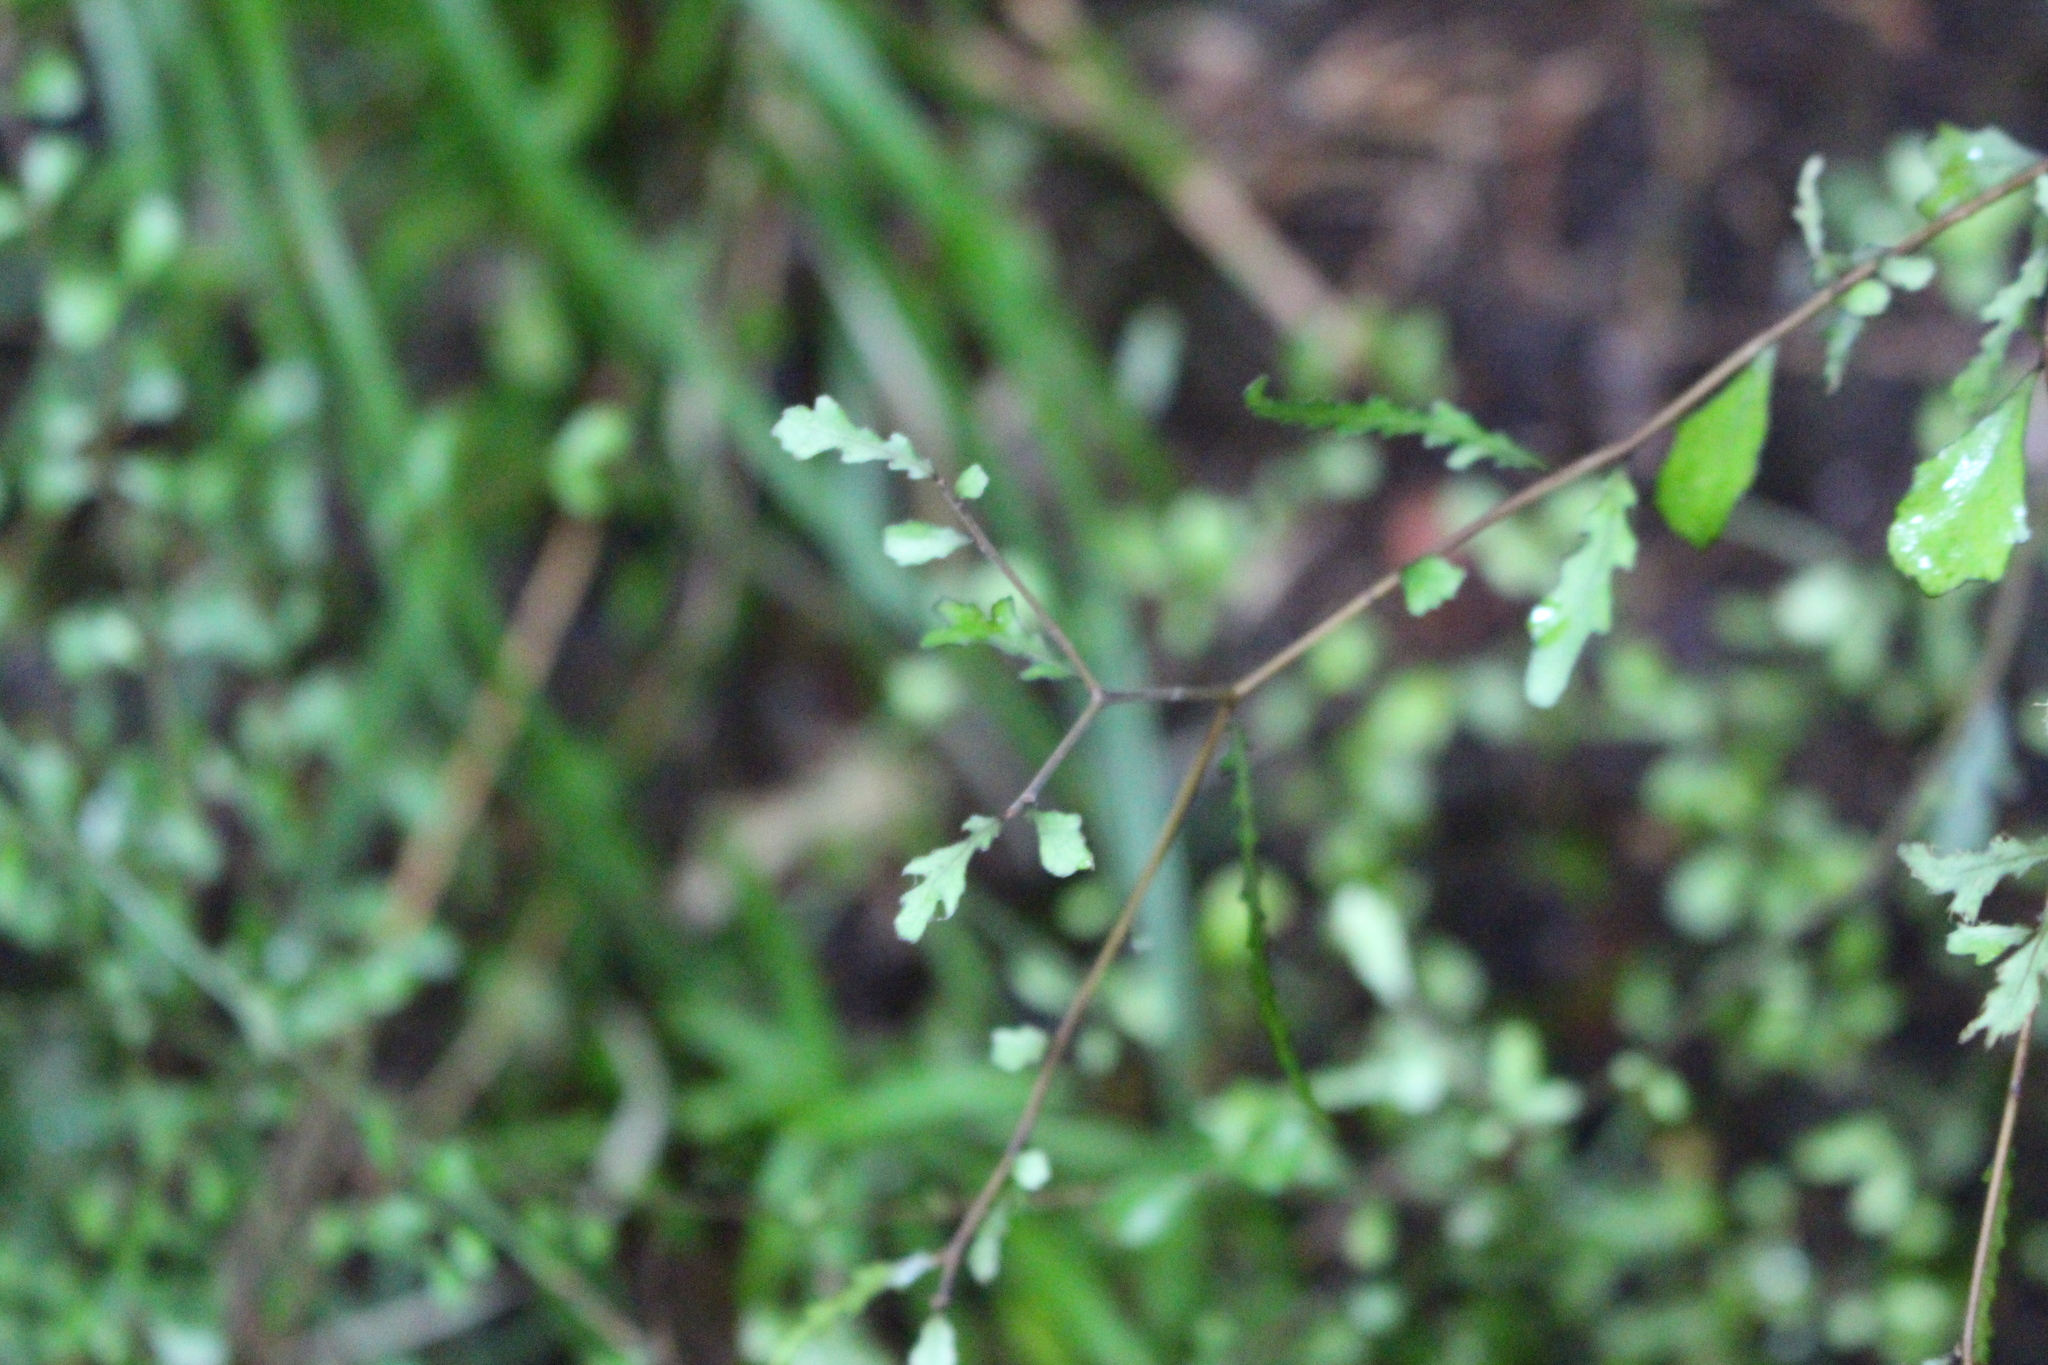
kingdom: Plantae
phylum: Tracheophyta
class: Magnoliopsida
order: Oxalidales
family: Elaeocarpaceae
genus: Elaeocarpus
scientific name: Elaeocarpus hookerianus
